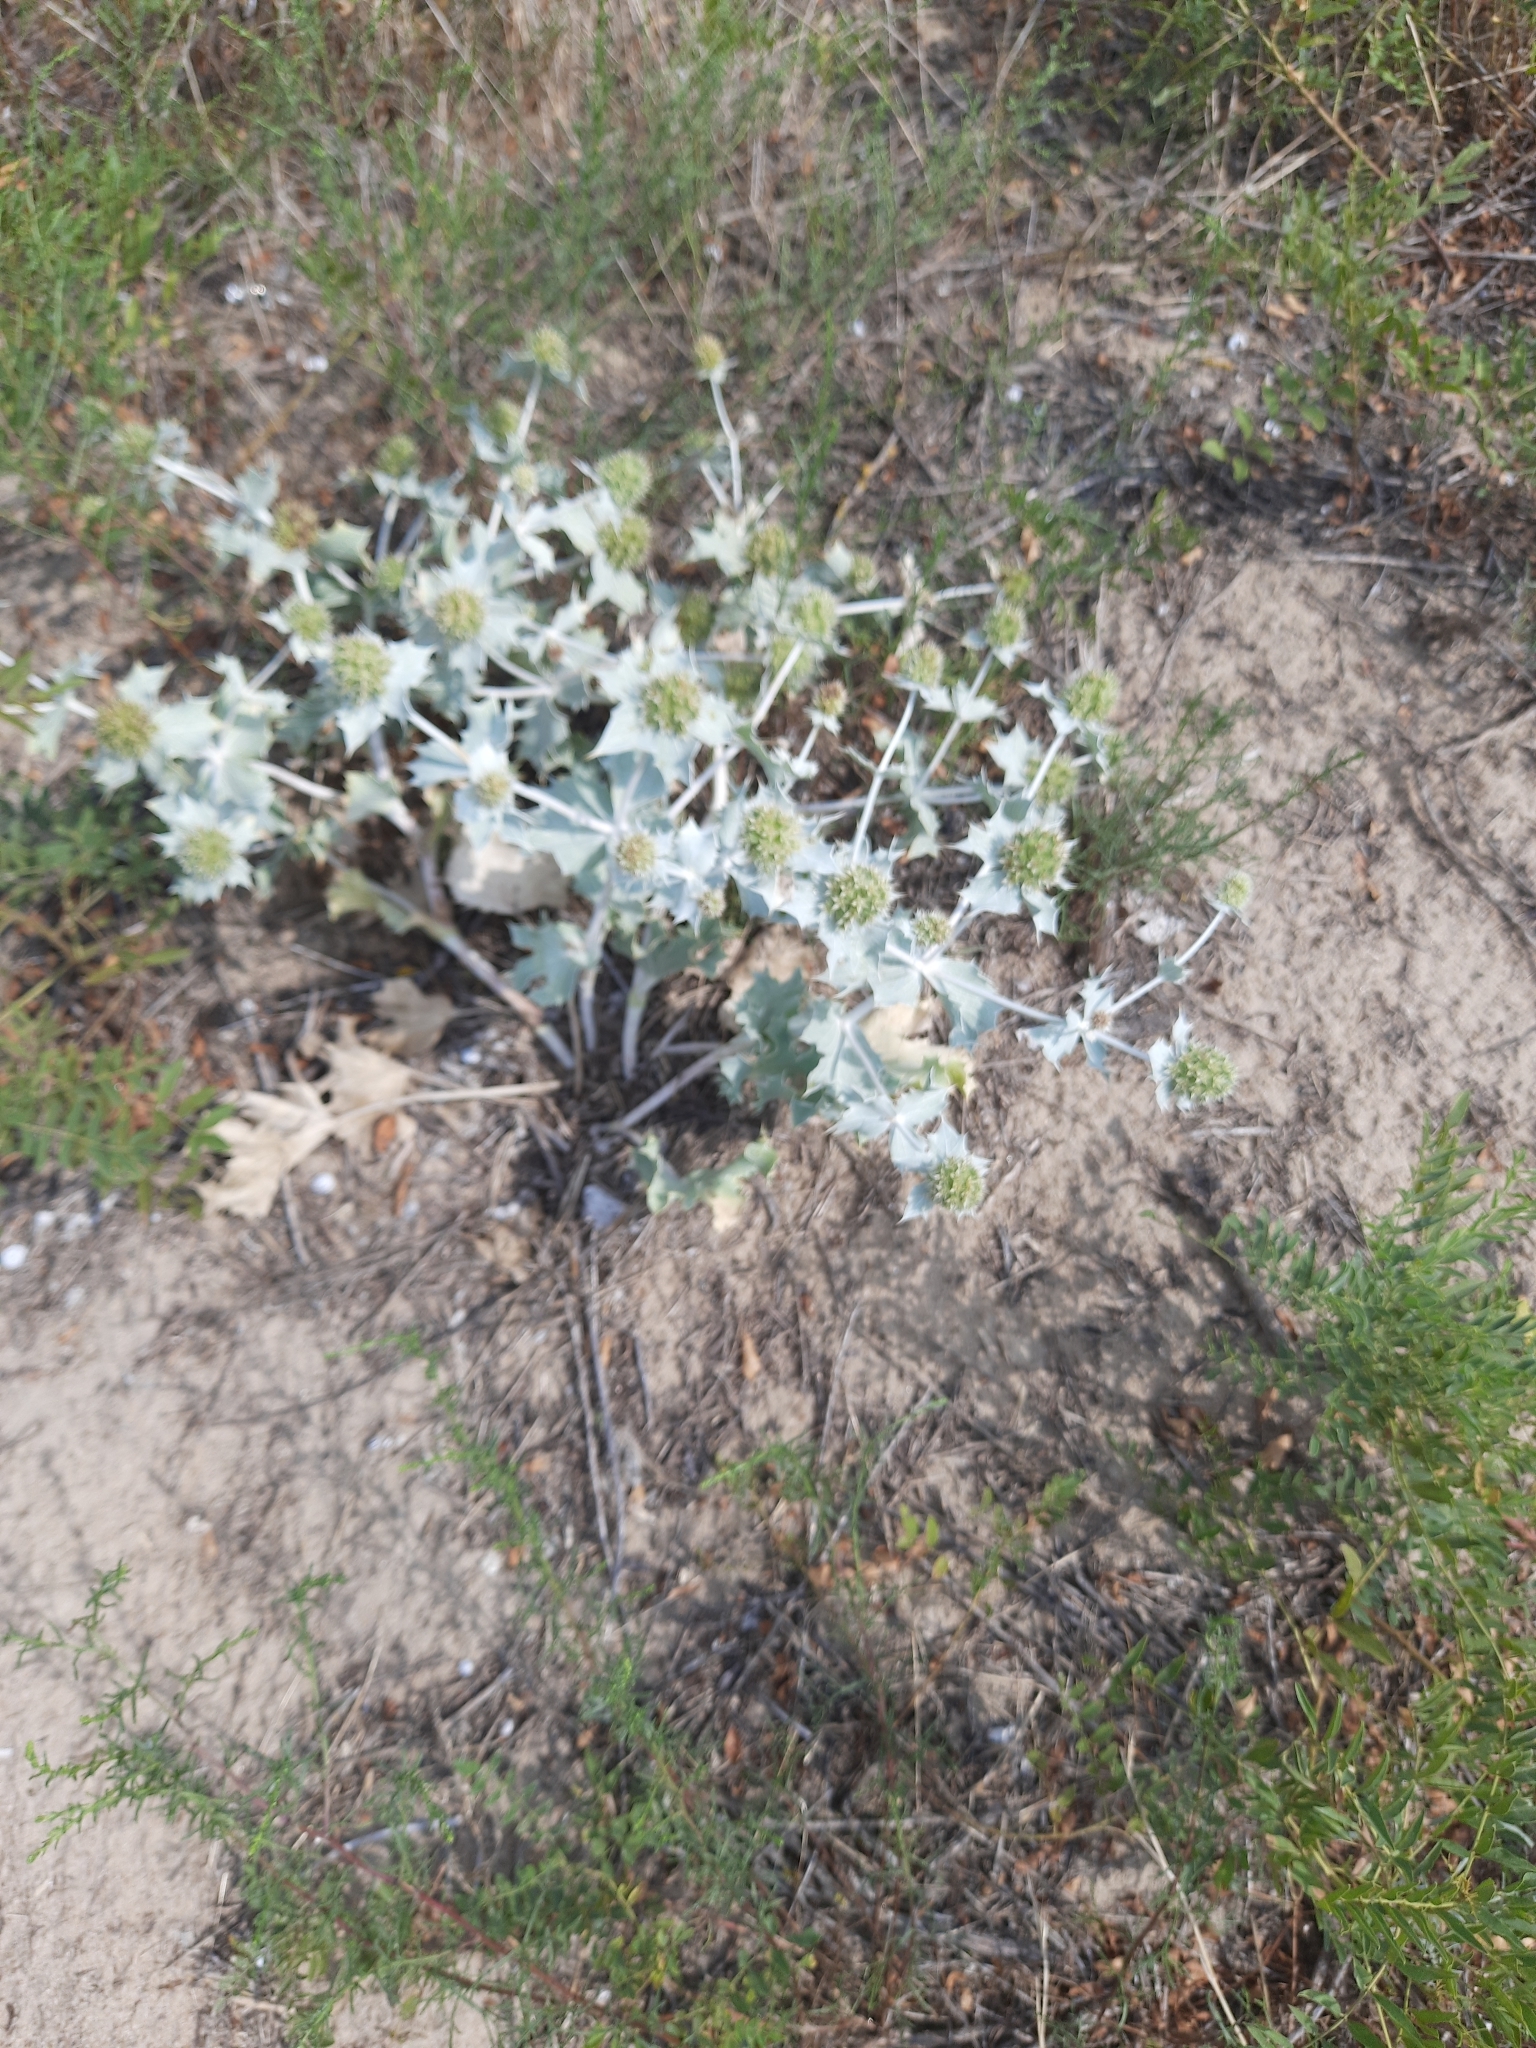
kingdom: Plantae
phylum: Tracheophyta
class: Magnoliopsida
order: Apiales
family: Apiaceae
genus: Eryngium
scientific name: Eryngium maritimum
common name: Sea-holly
